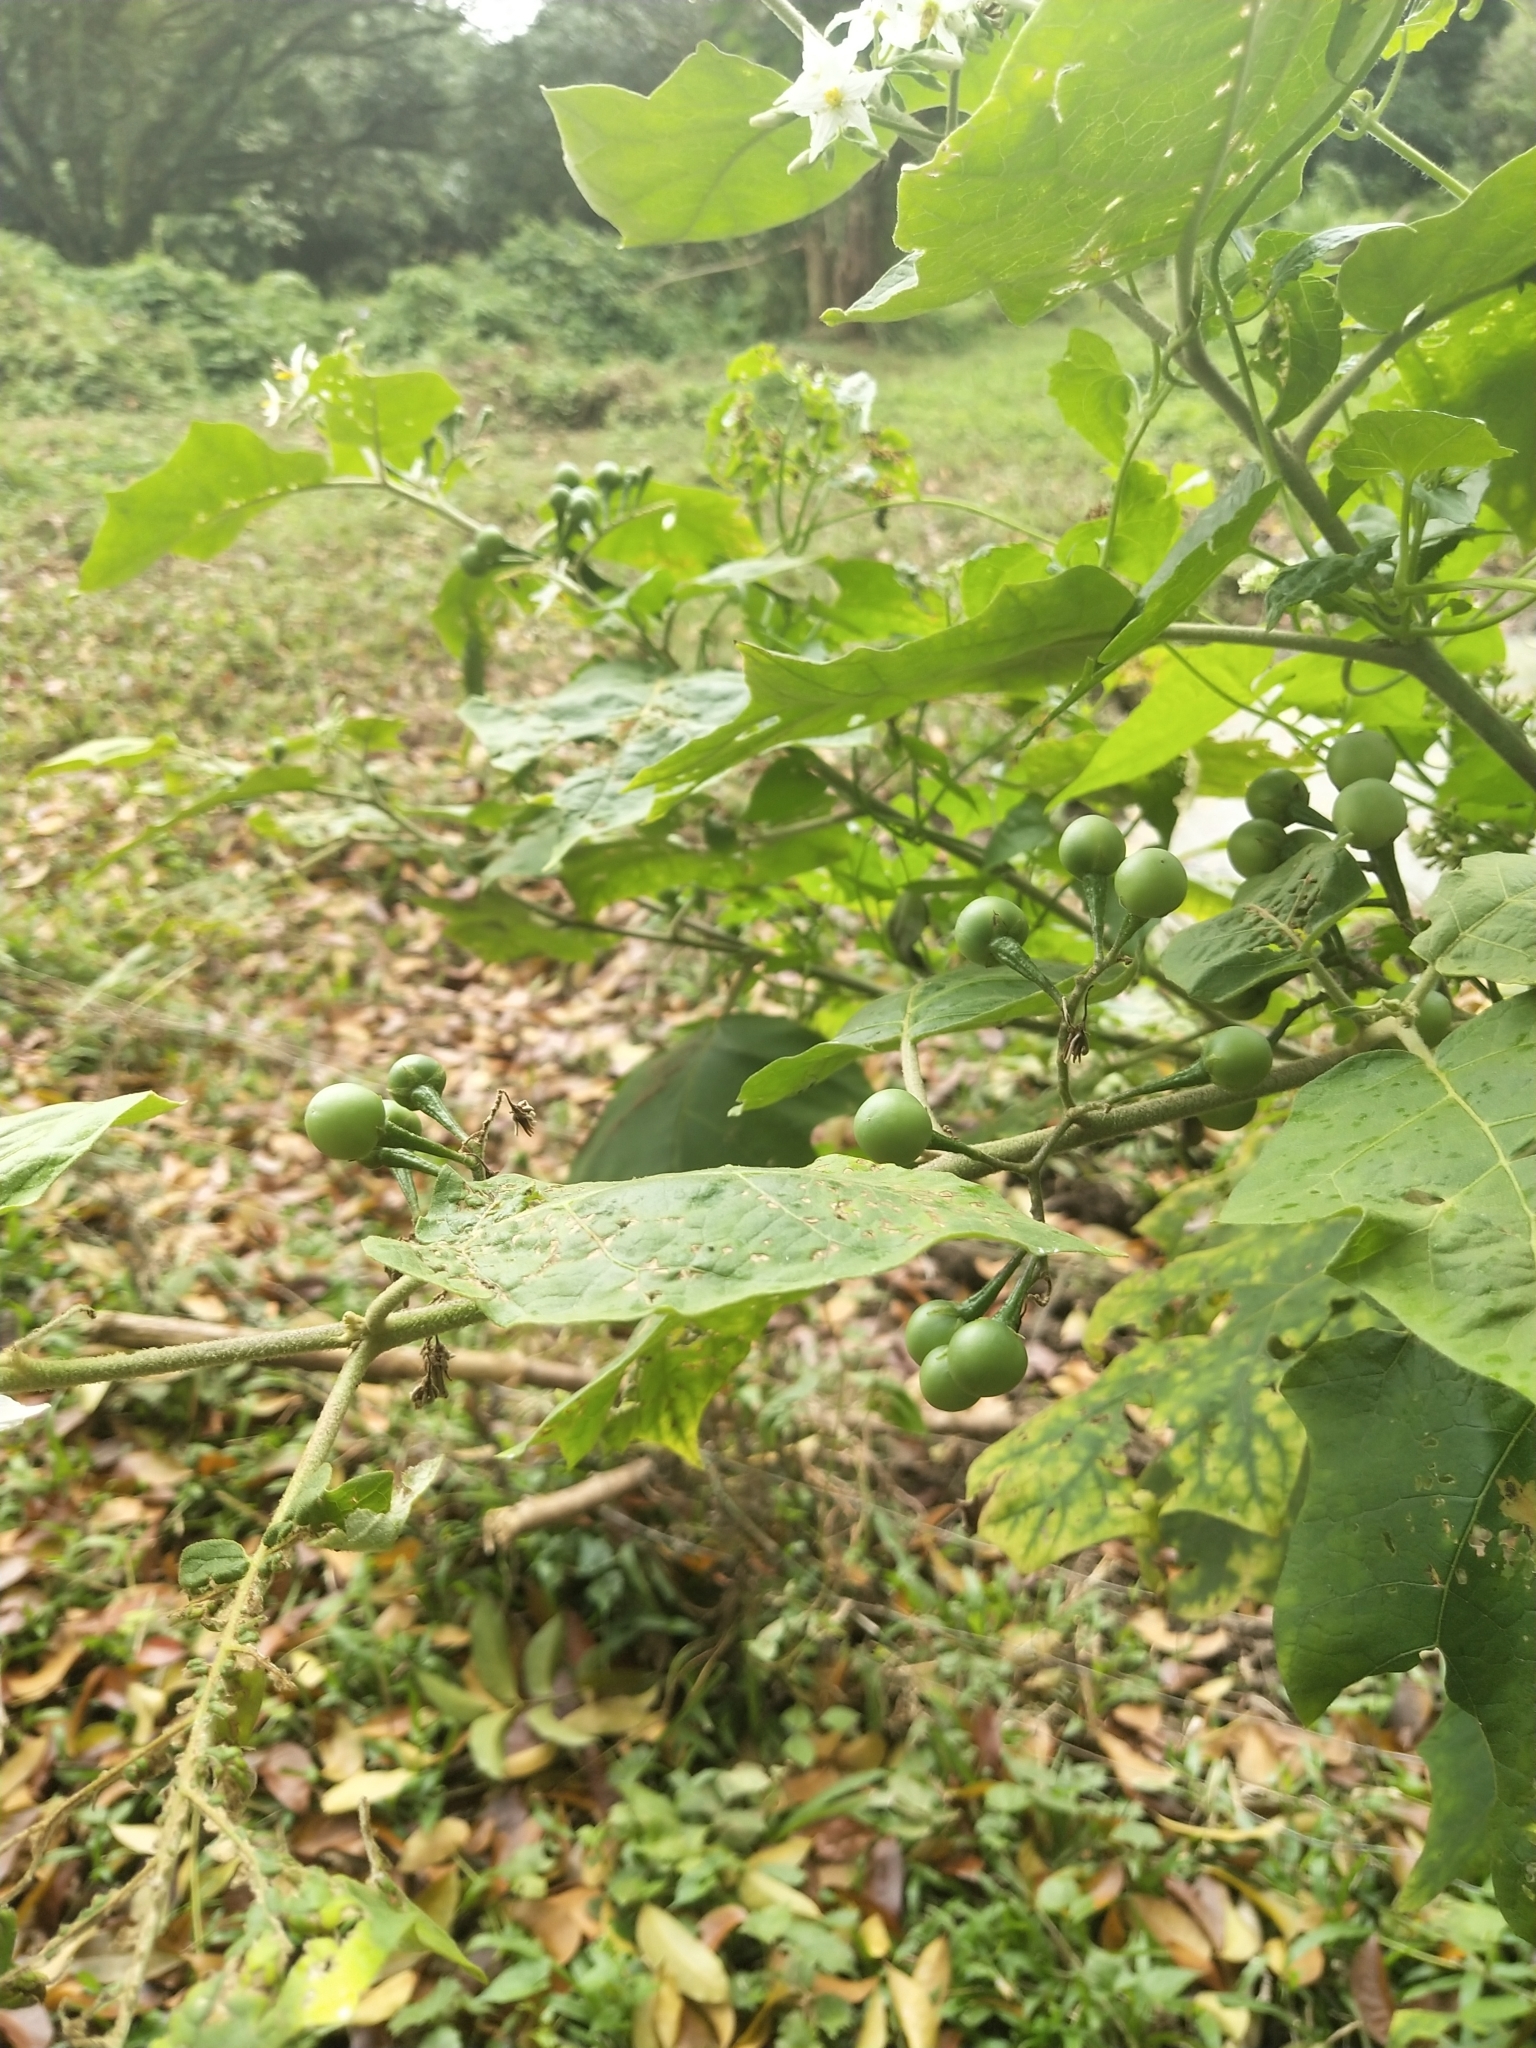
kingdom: Plantae
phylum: Tracheophyta
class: Magnoliopsida
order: Solanales
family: Solanaceae
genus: Solanum
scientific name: Solanum torvum
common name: Turkey berry
